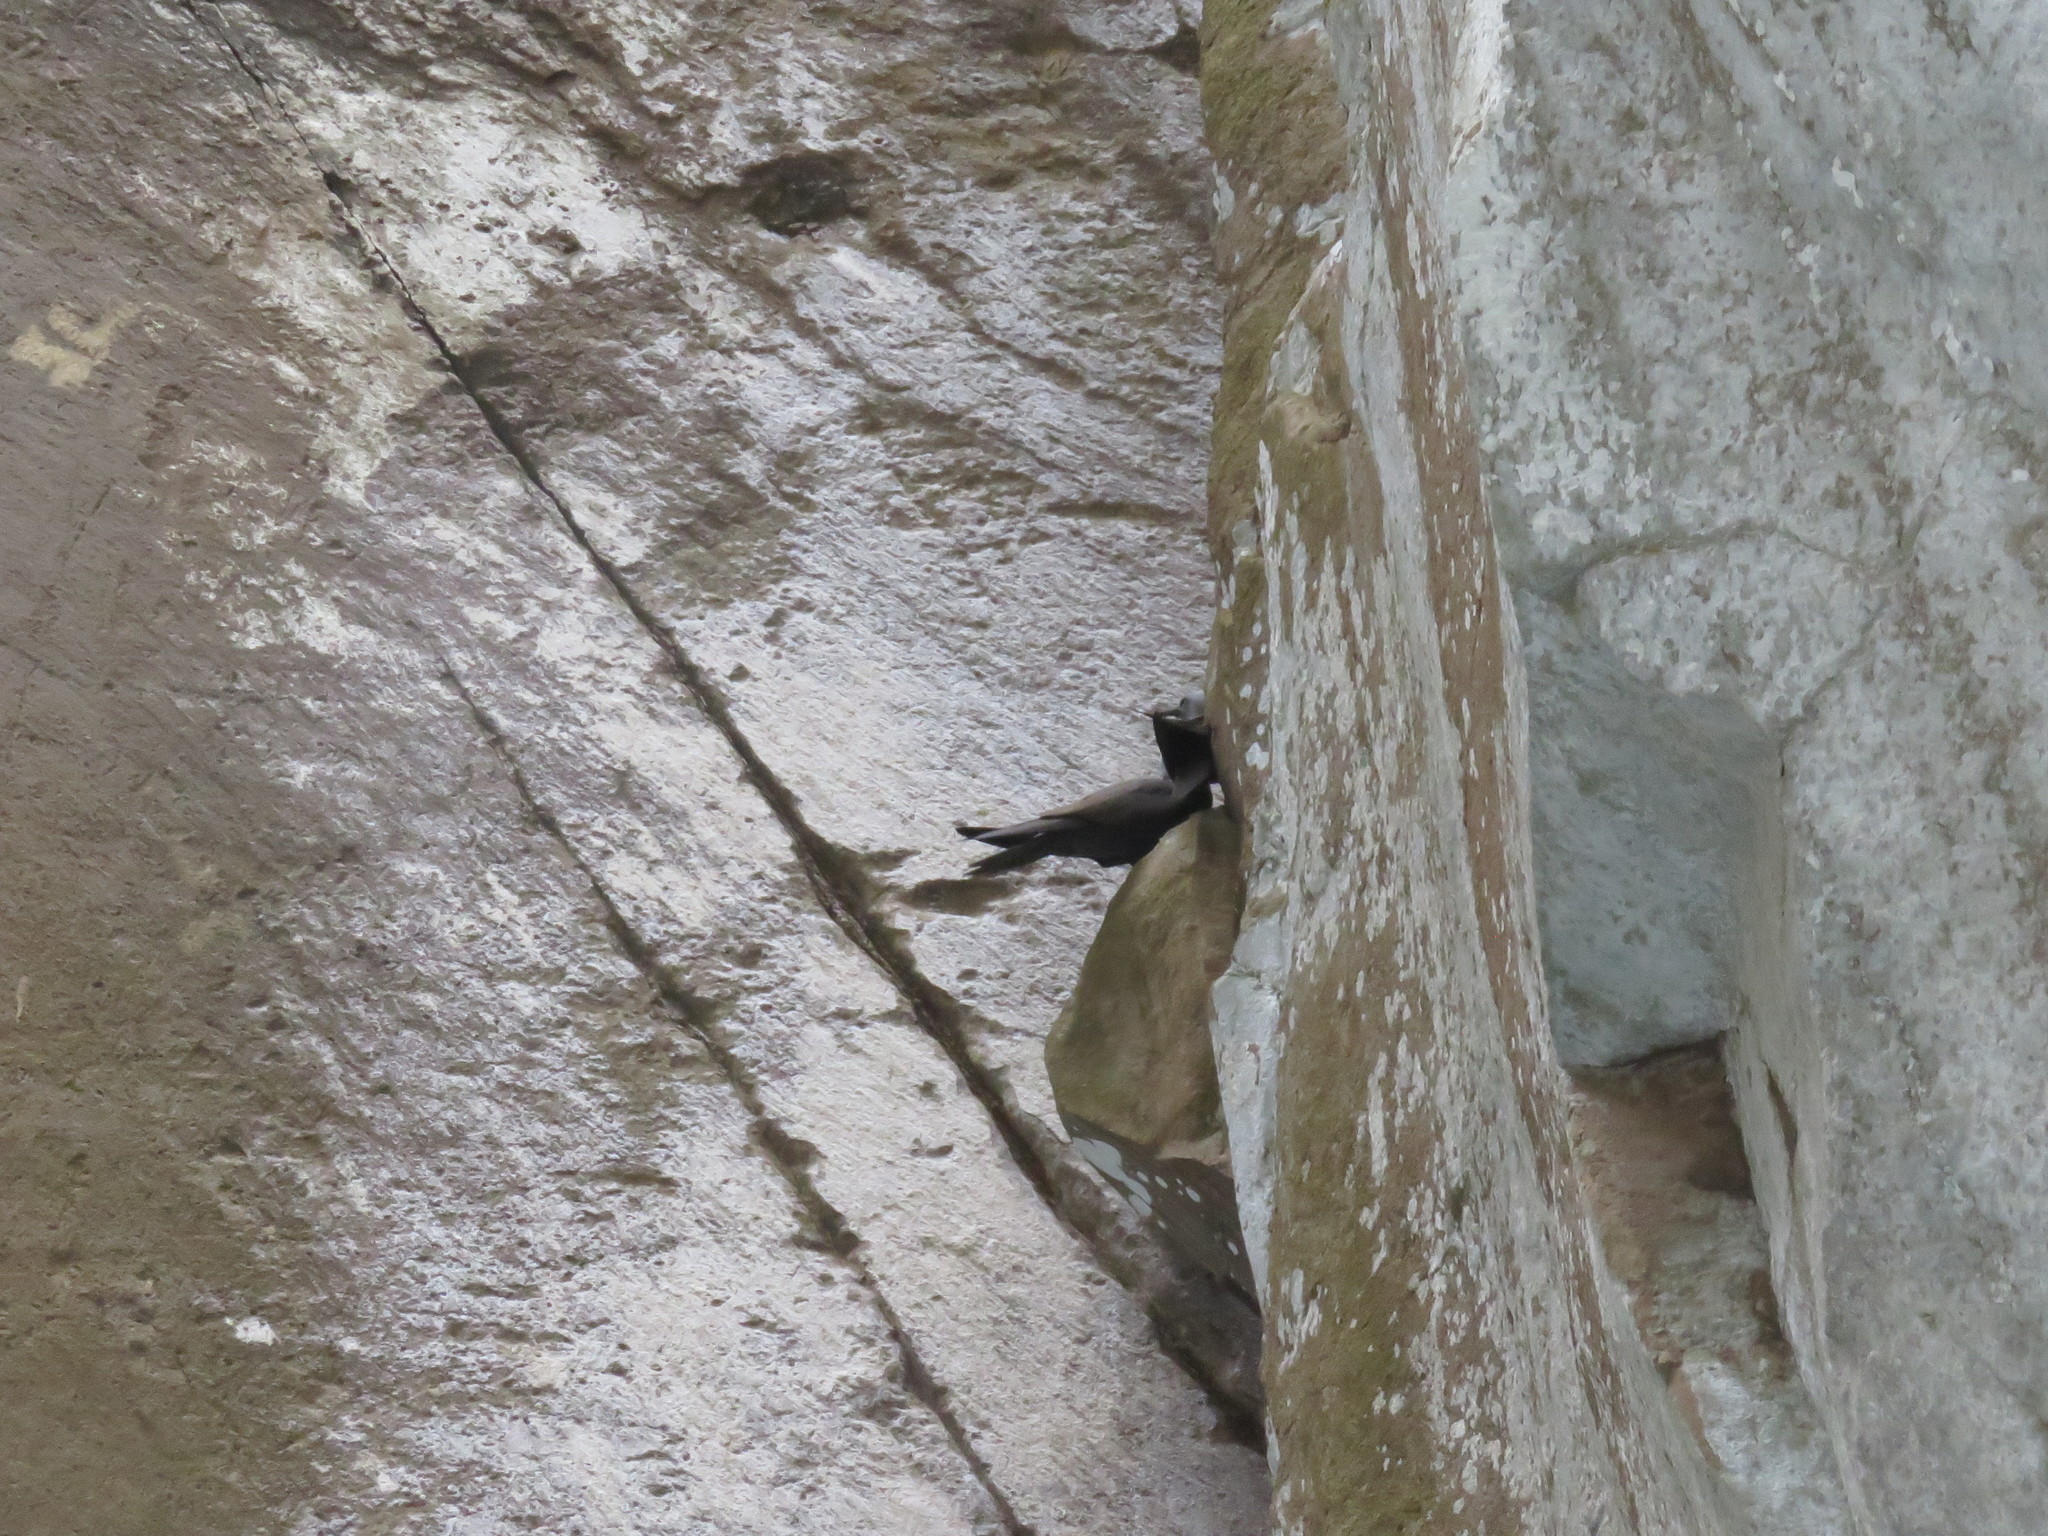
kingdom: Animalia
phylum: Chordata
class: Aves
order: Charadriiformes
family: Laridae
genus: Anous
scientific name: Anous stolidus
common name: Brown noddy
